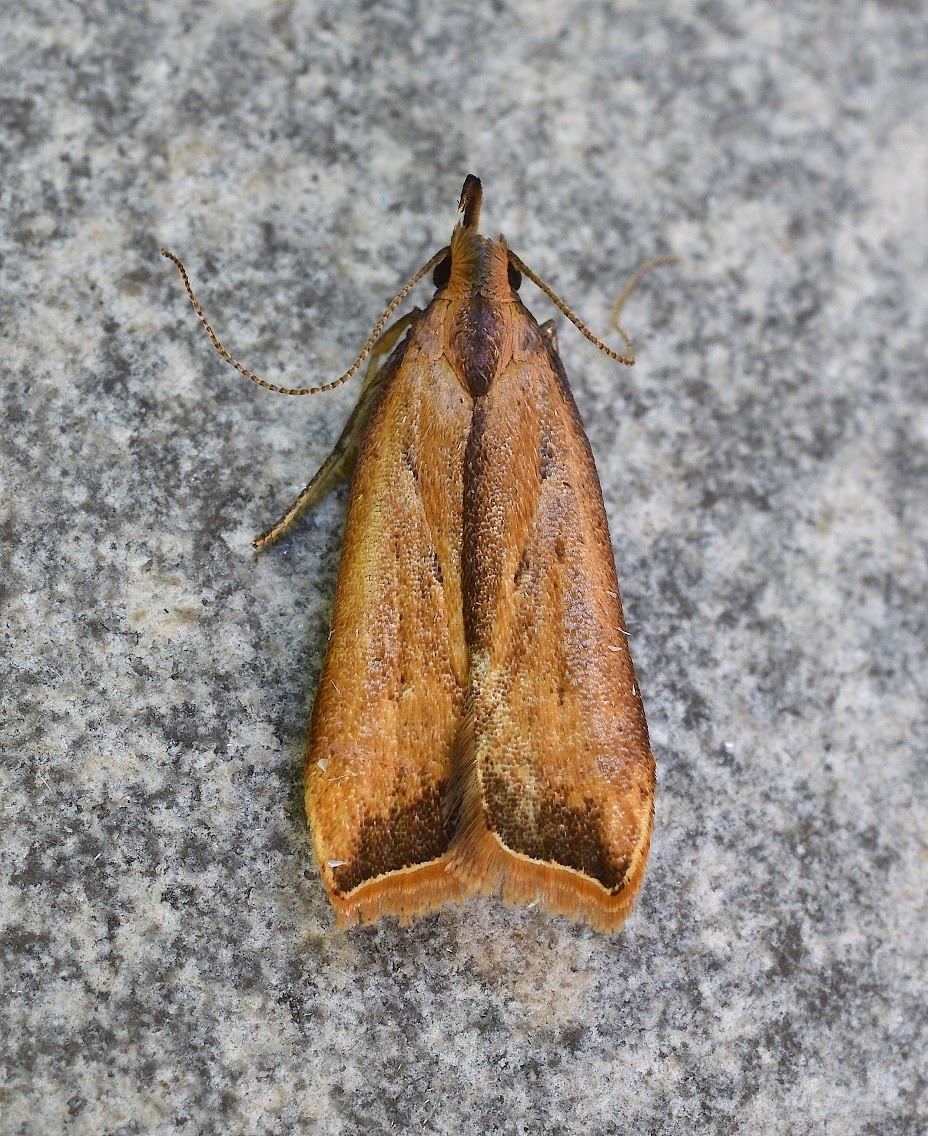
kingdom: Animalia
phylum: Arthropoda
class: Insecta
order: Lepidoptera
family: Gelechiidae
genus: Dichomeris
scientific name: Dichomeris heriguronis
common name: Black-edged dichomeris moth
